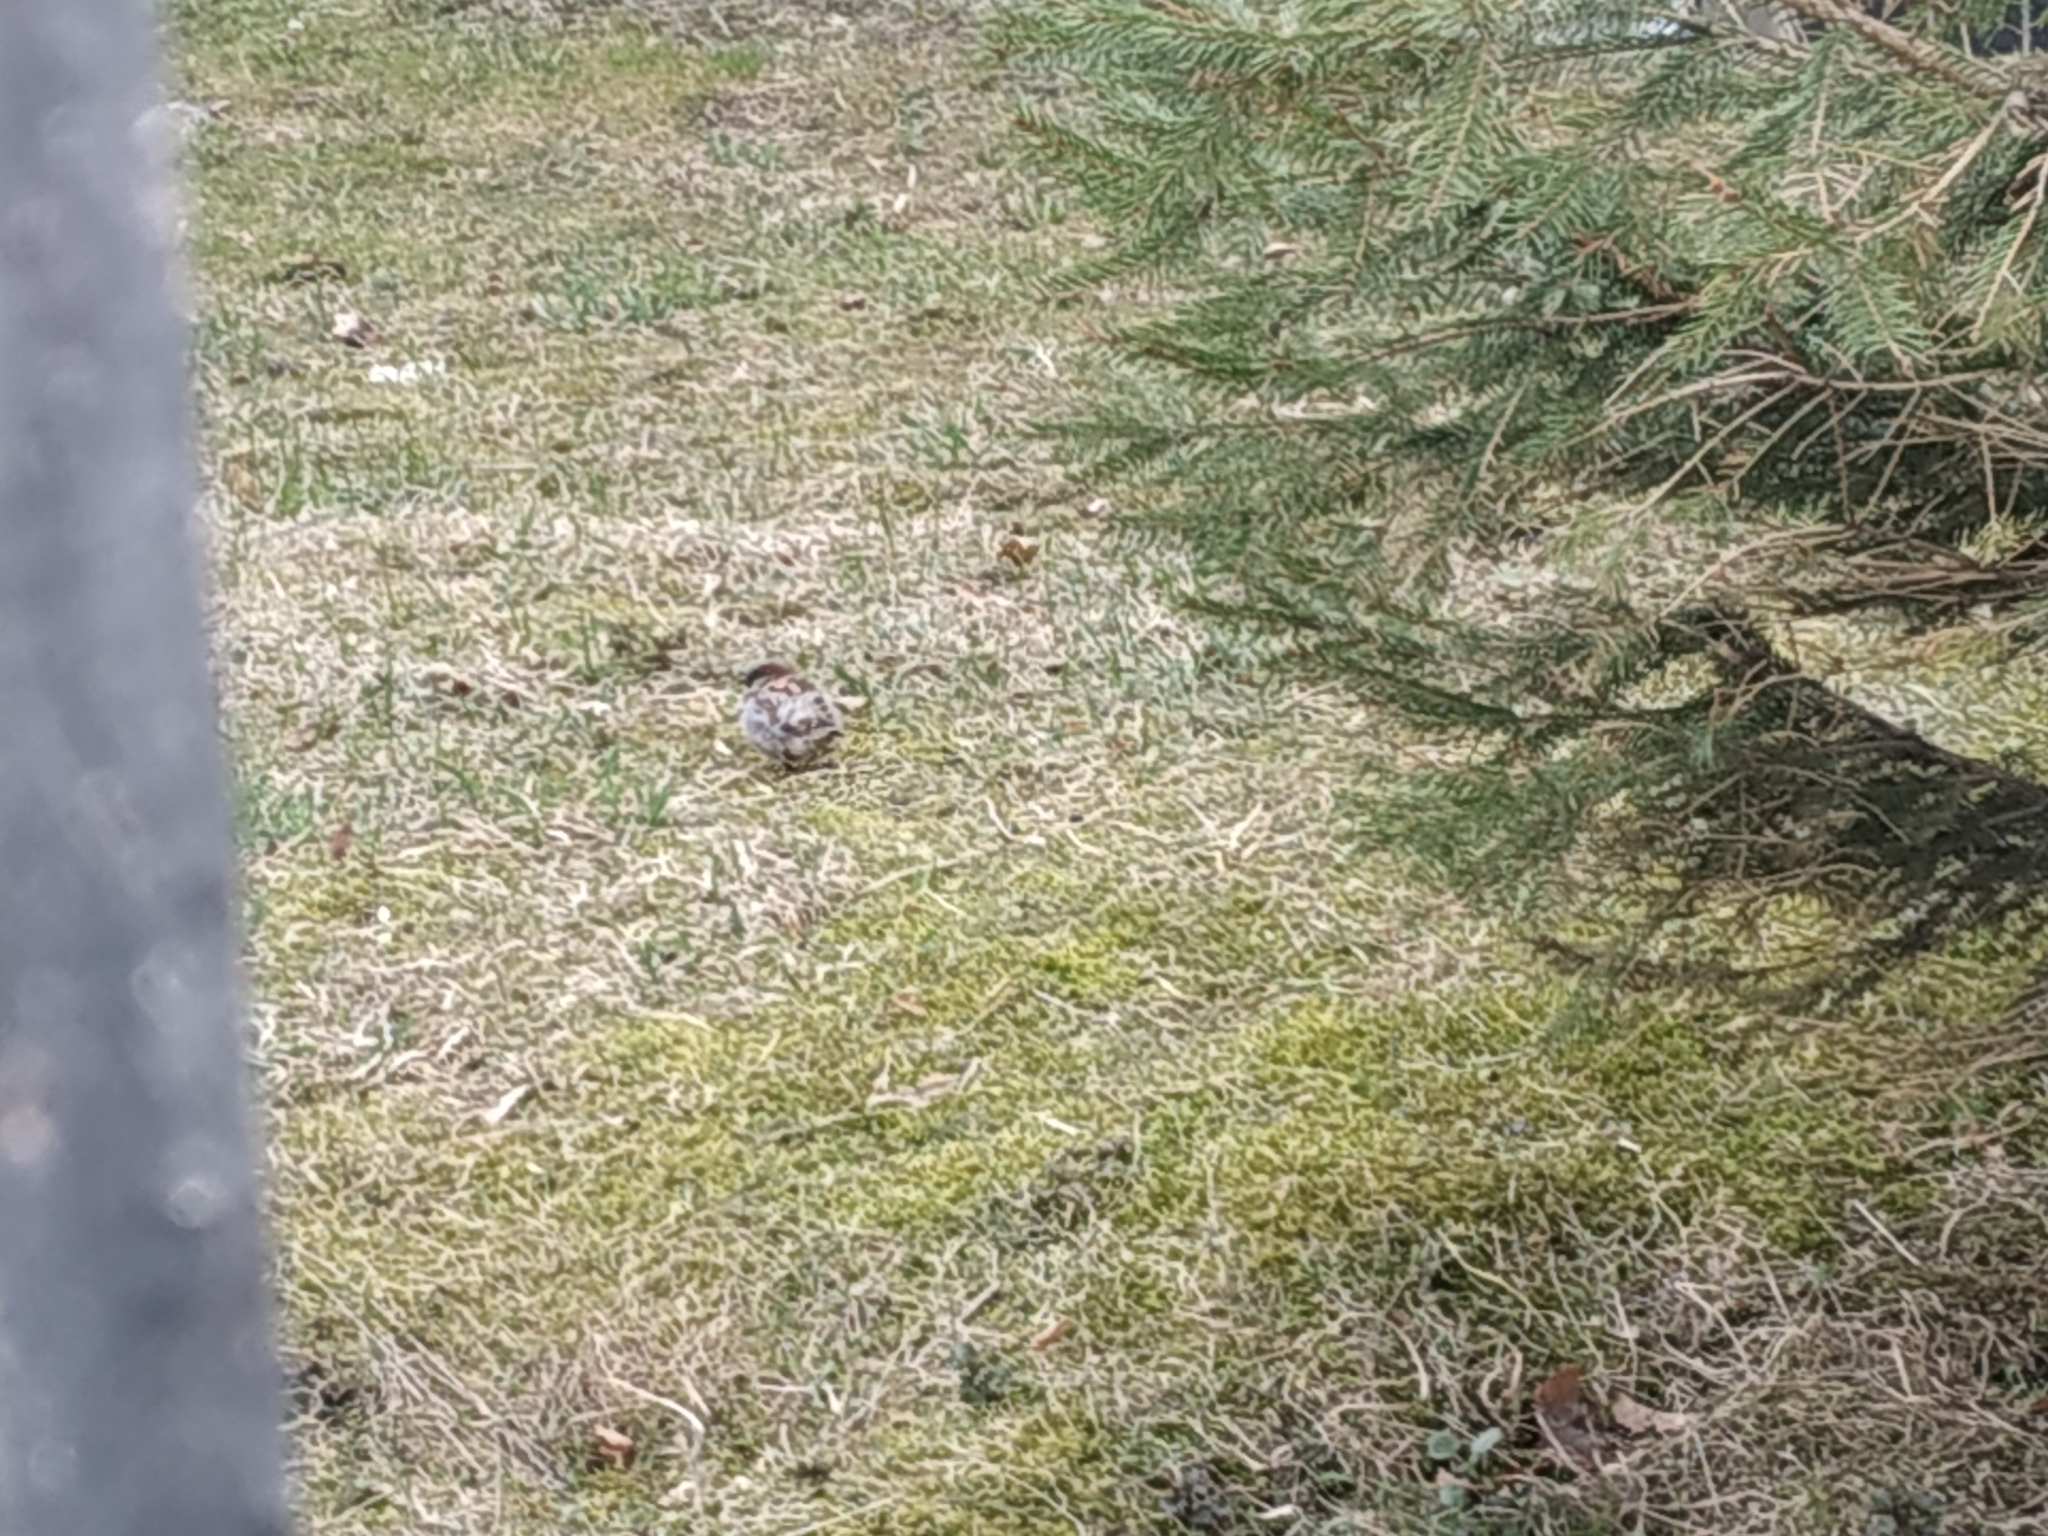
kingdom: Animalia
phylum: Chordata
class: Aves
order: Passeriformes
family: Passeridae
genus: Passer
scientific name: Passer domesticus
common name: House sparrow
